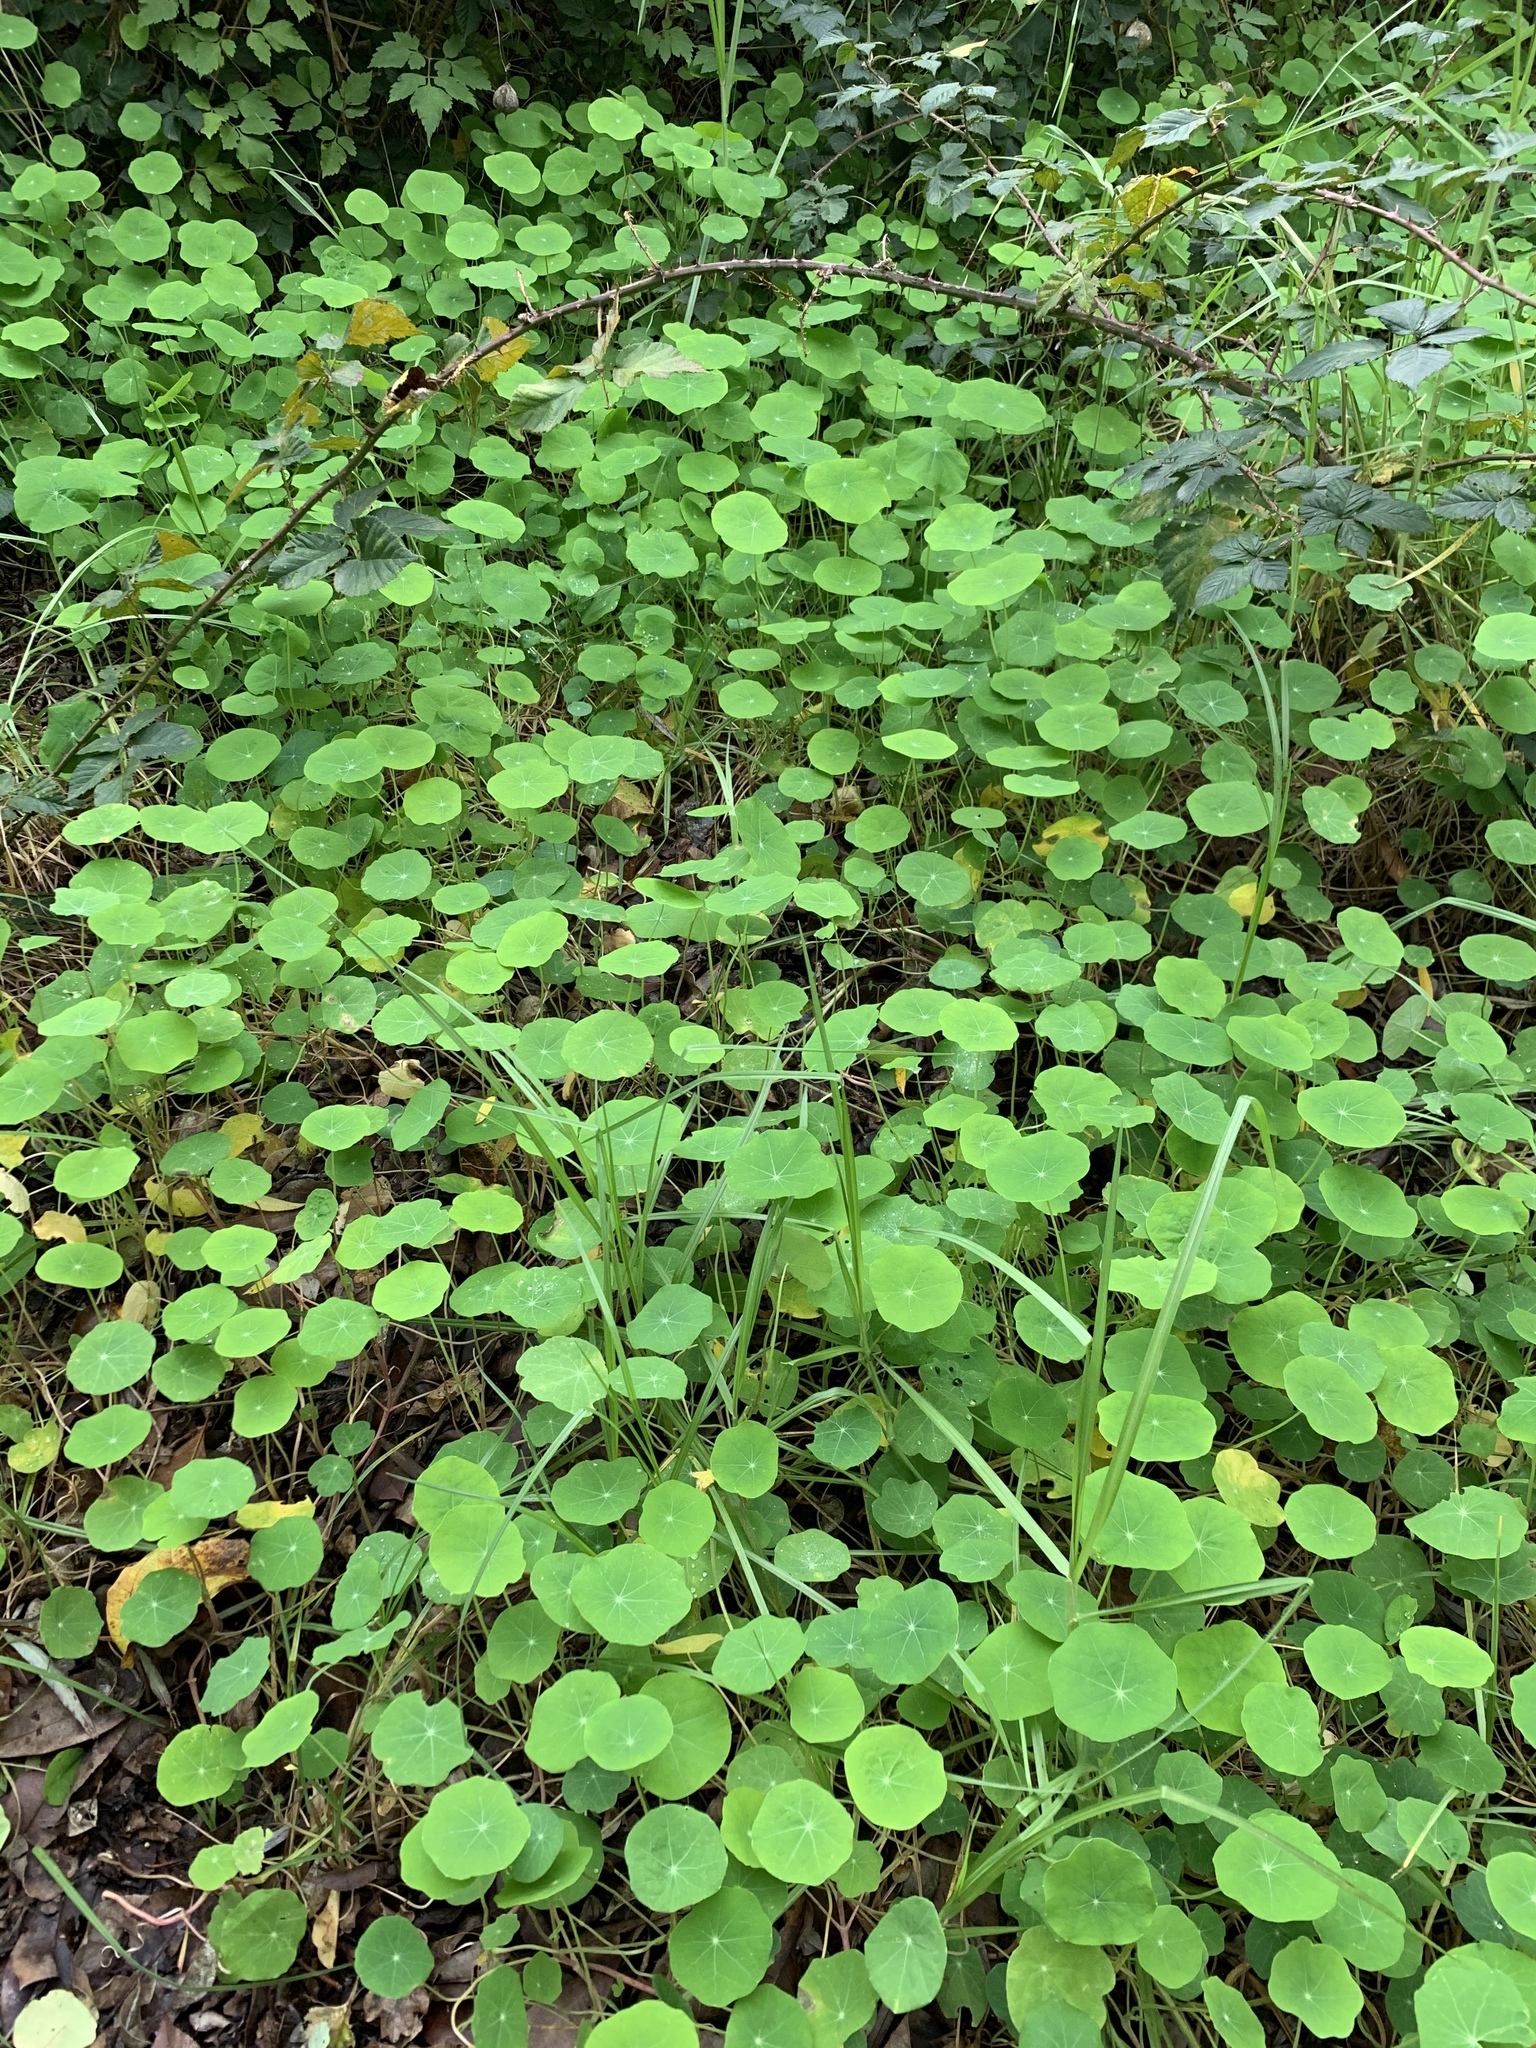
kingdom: Plantae
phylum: Tracheophyta
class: Magnoliopsida
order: Brassicales
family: Tropaeolaceae
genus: Tropaeolum
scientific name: Tropaeolum majus
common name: Nasturtium
